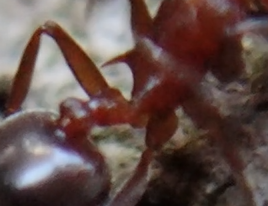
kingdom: Animalia
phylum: Arthropoda
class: Insecta
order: Hymenoptera
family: Formicidae
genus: Crematogaster
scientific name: Crematogaster schmidti
